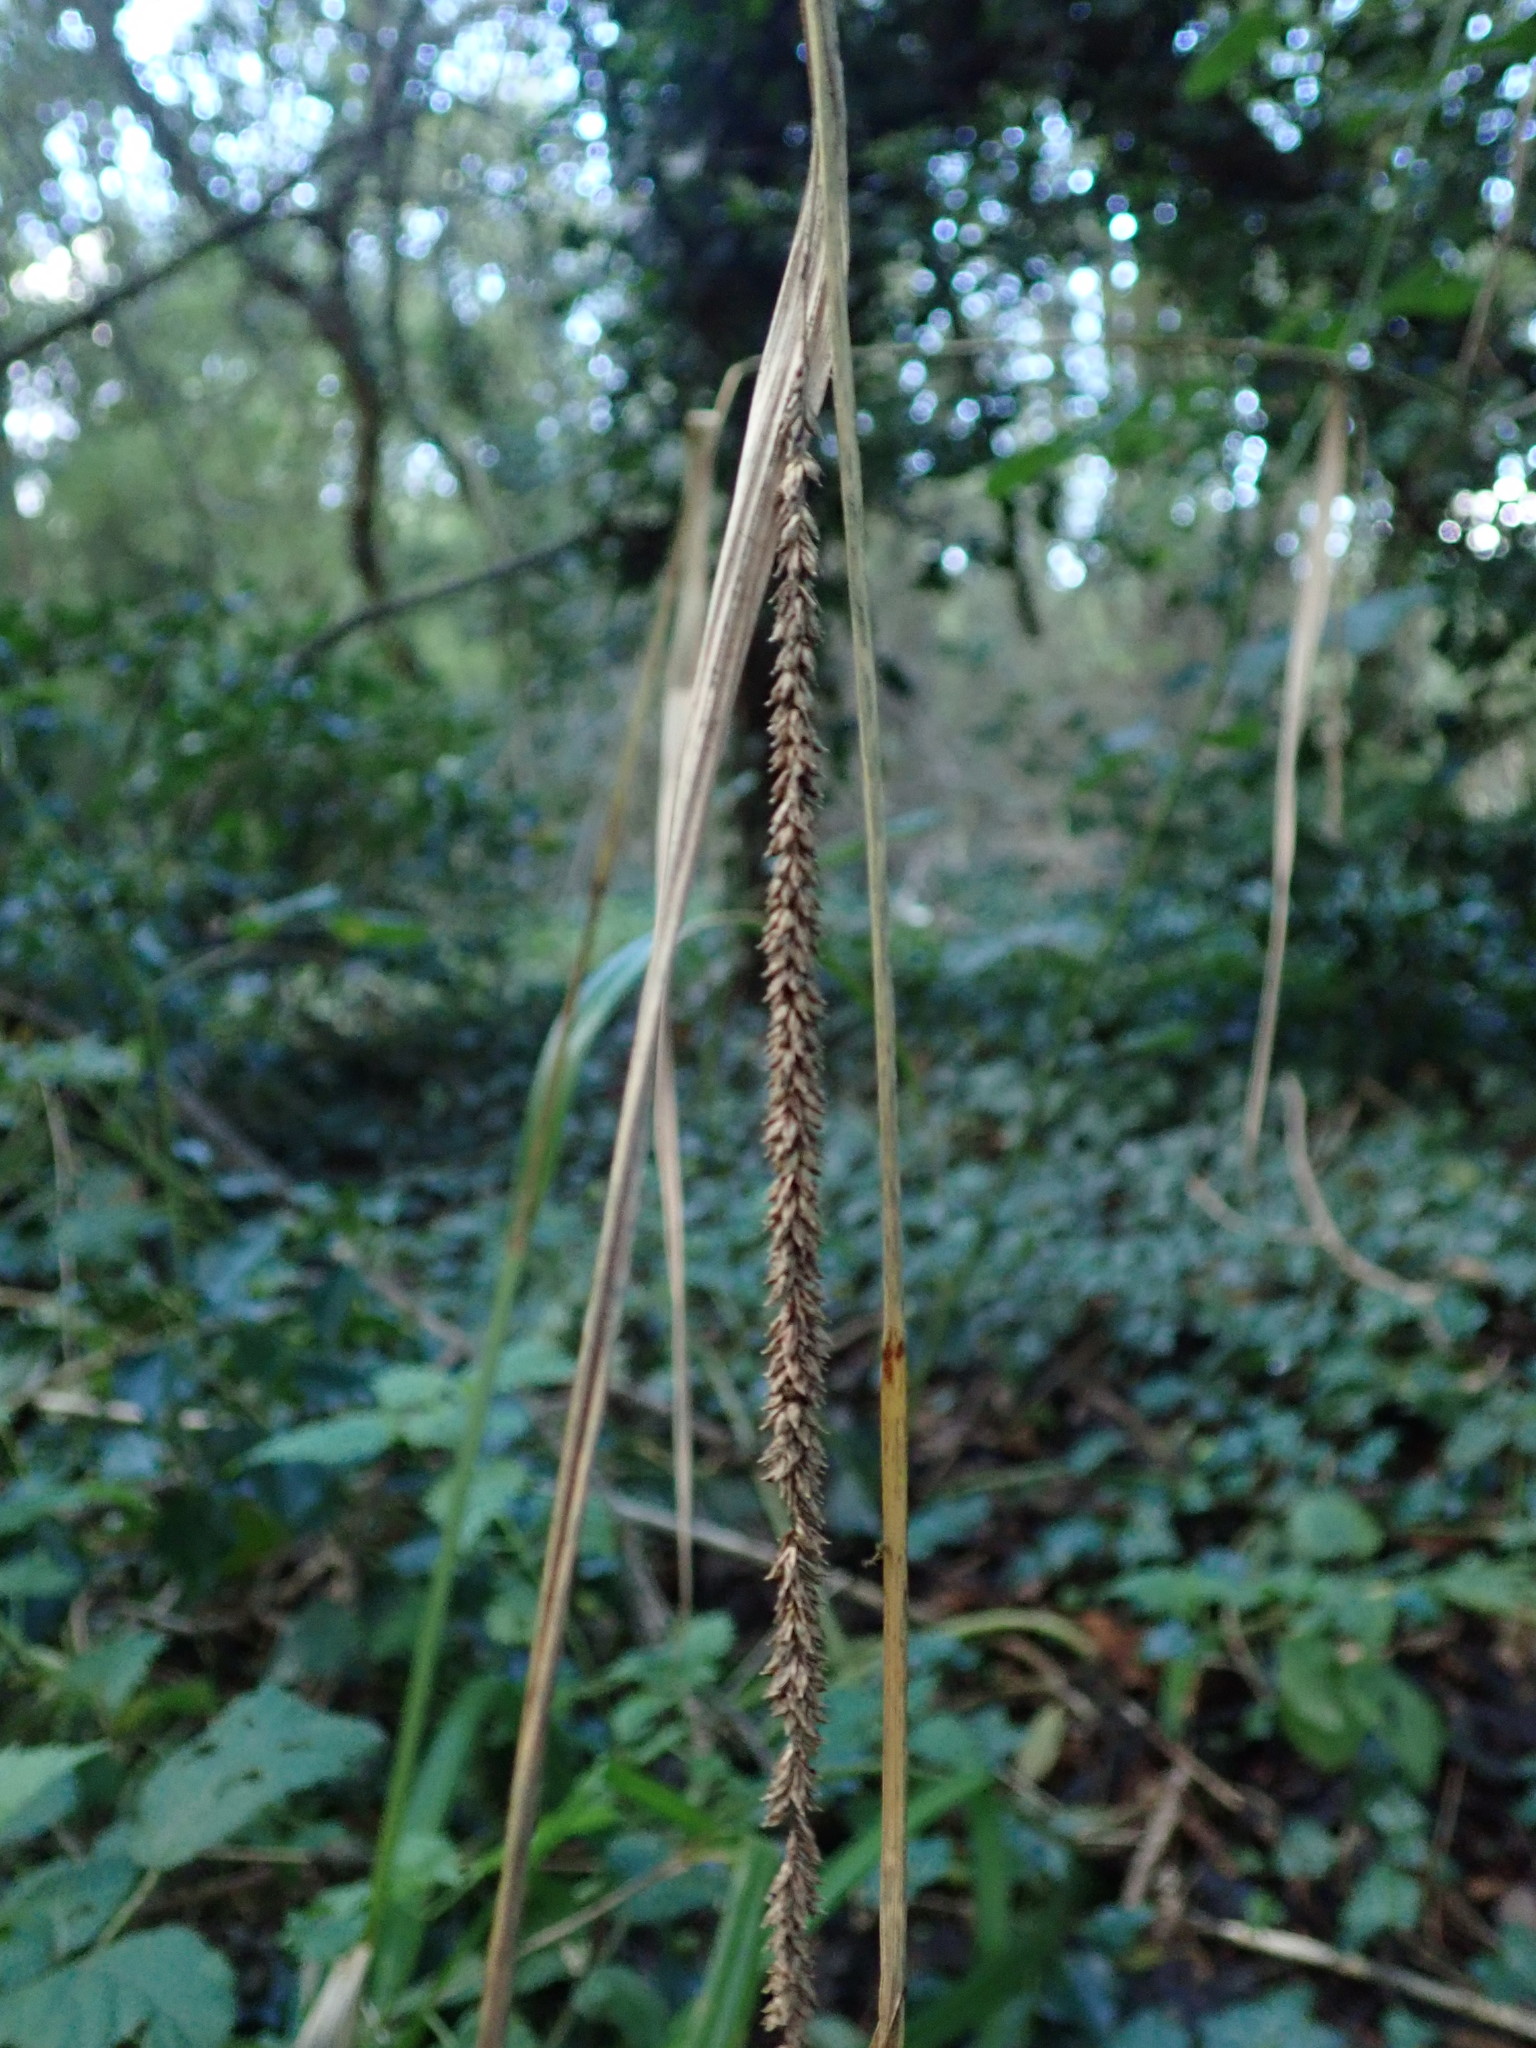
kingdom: Plantae
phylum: Tracheophyta
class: Liliopsida
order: Poales
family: Cyperaceae
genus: Carex
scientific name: Carex pendula
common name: Pendulous sedge
